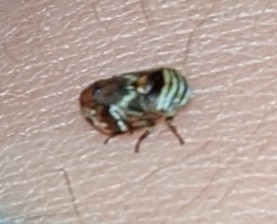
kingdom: Animalia
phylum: Arthropoda
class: Insecta
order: Hemiptera
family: Clastopteridae
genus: Clastoptera
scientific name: Clastoptera obtusa
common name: Alder spittlebug
